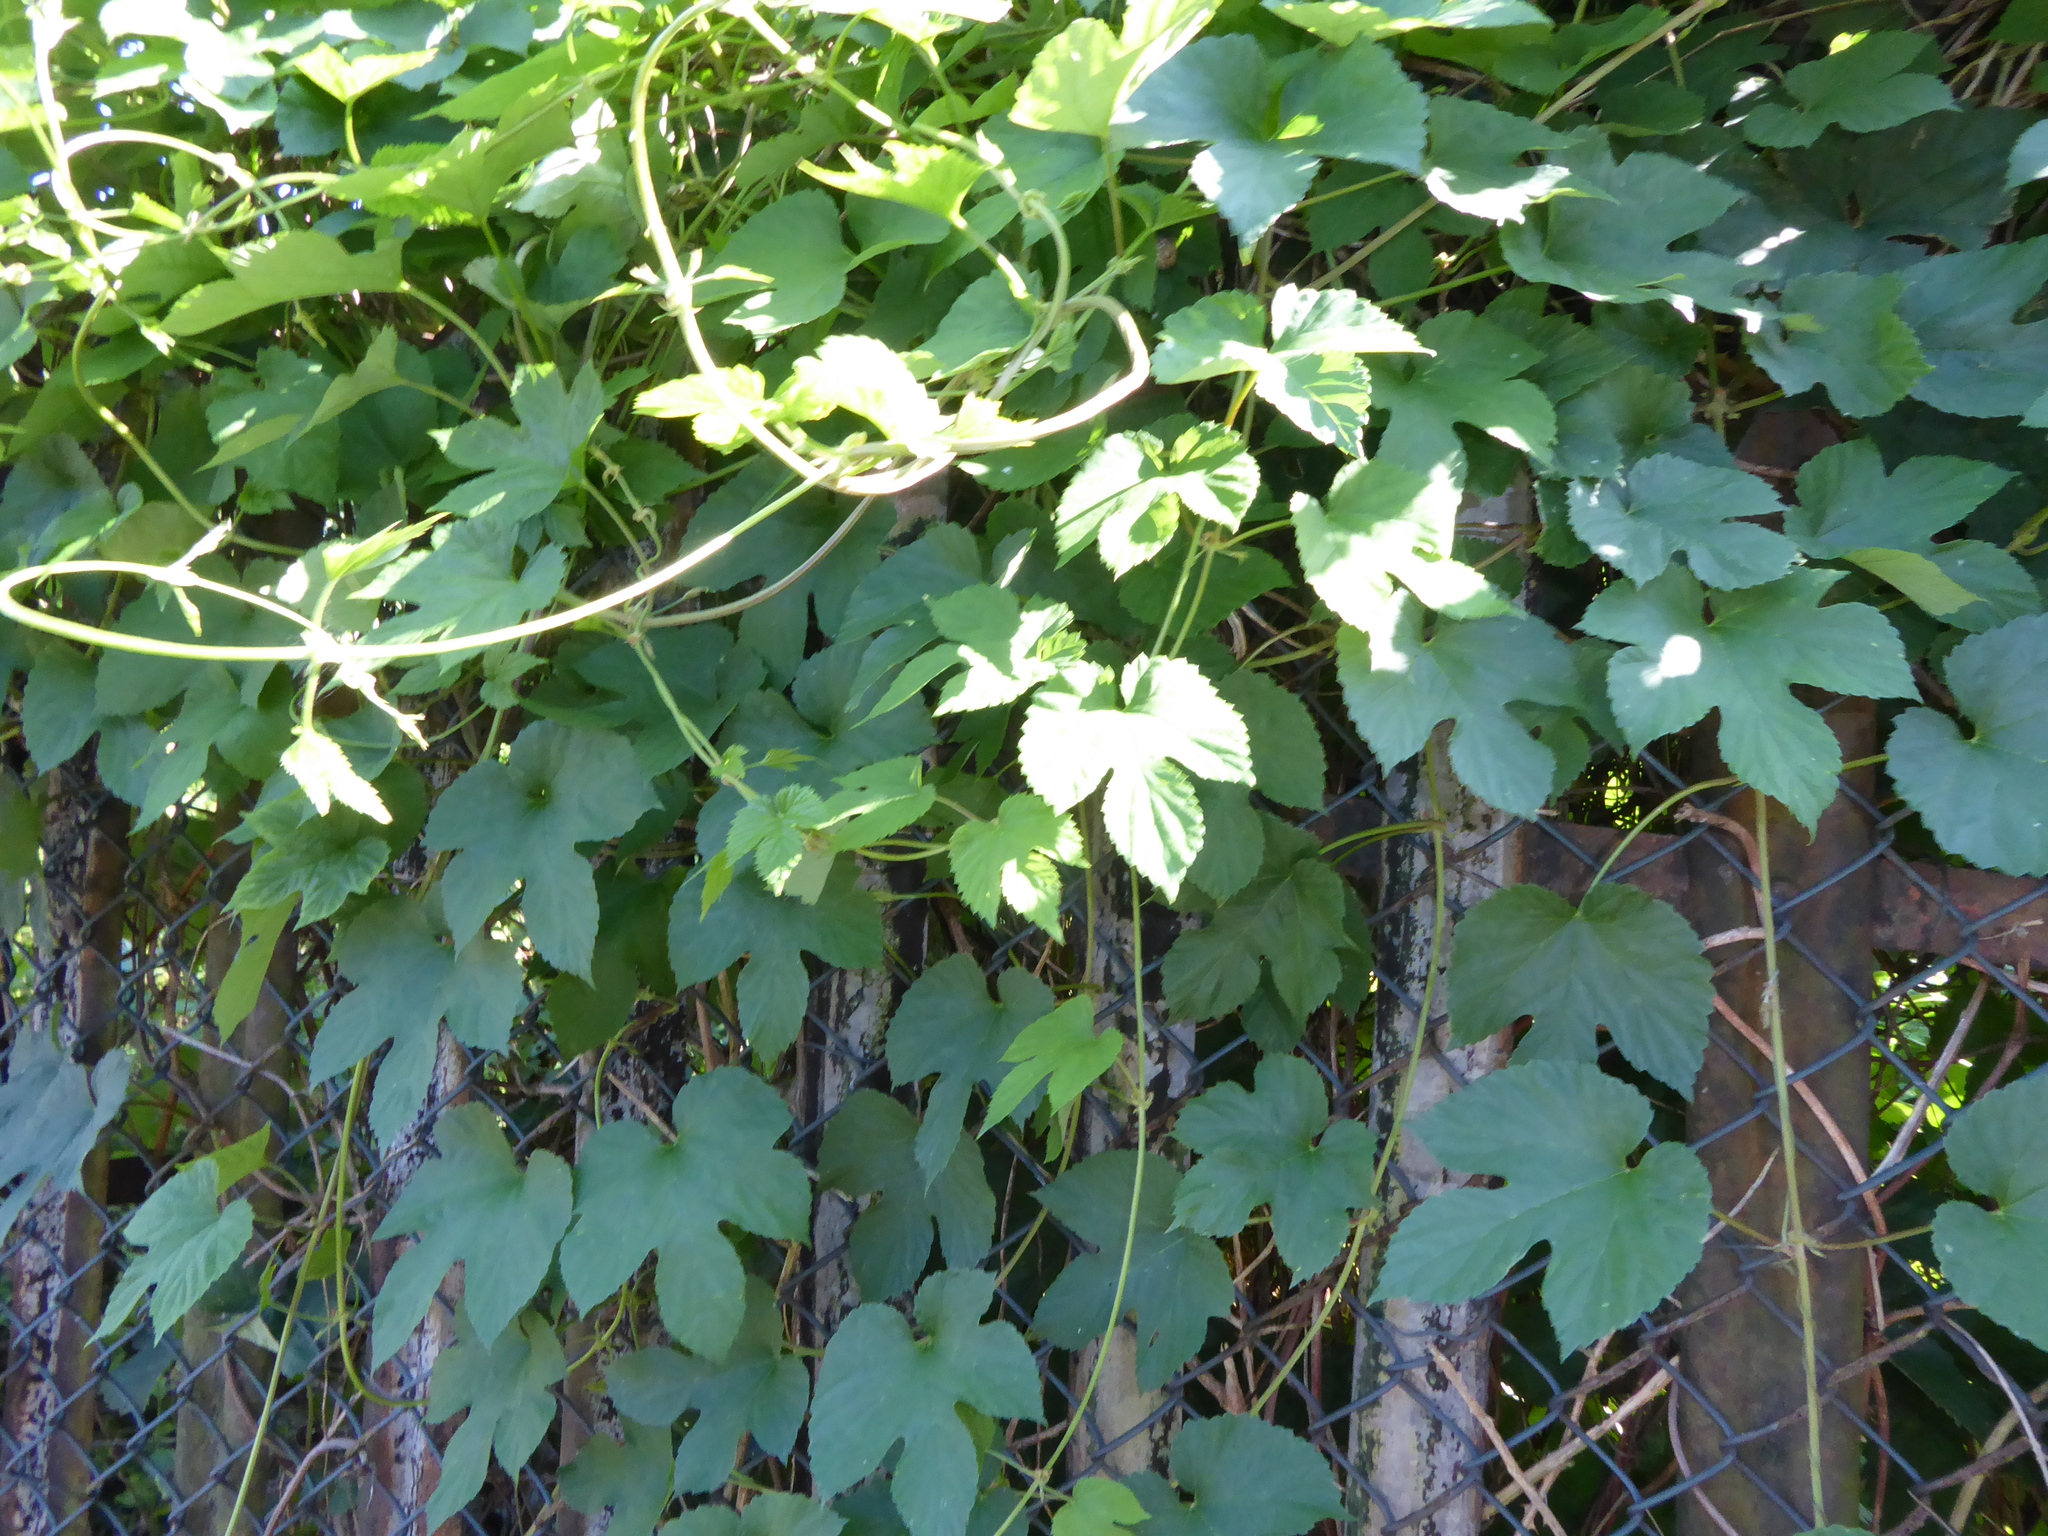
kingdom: Plantae
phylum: Tracheophyta
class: Magnoliopsida
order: Rosales
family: Cannabaceae
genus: Humulus
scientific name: Humulus lupulus
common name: Hop
